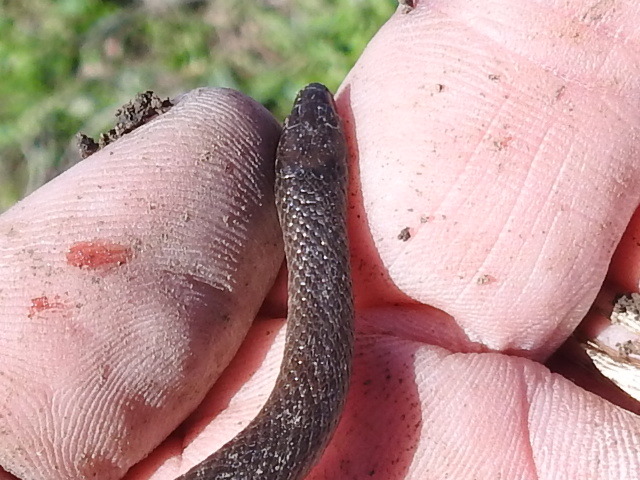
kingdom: Animalia
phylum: Chordata
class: Squamata
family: Colubridae
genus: Haldea
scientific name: Haldea striatula
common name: Rough earth snake
